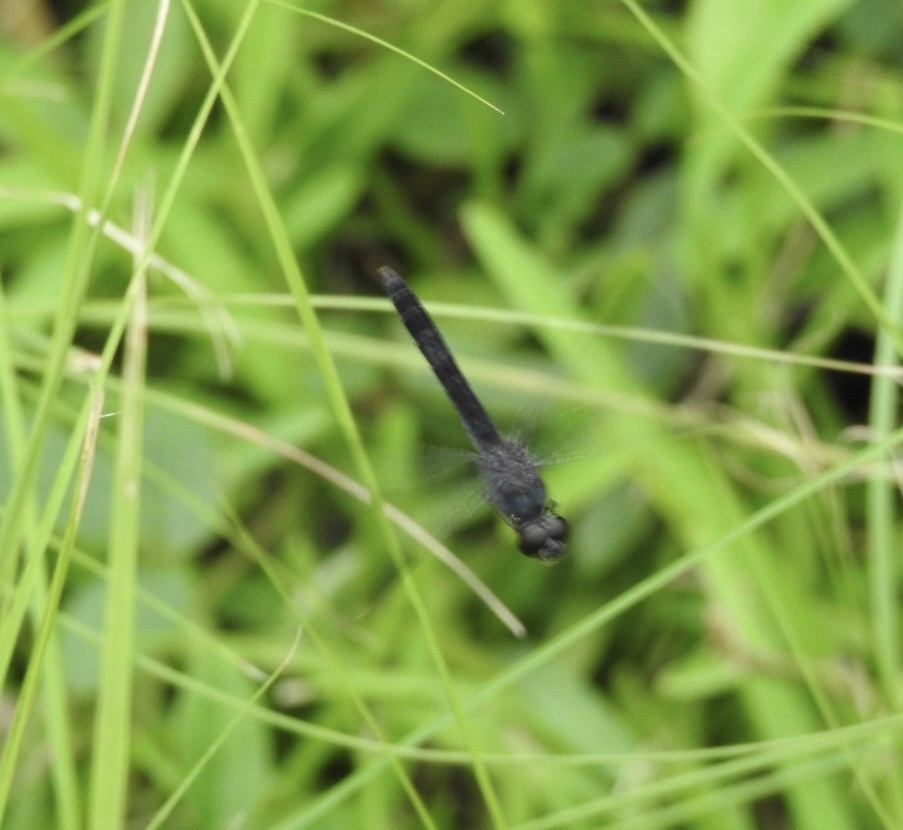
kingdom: Animalia
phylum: Arthropoda
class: Insecta
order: Odonata
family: Libellulidae
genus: Brachythemis
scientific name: Brachythemis leucosticta
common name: Banded groundling
